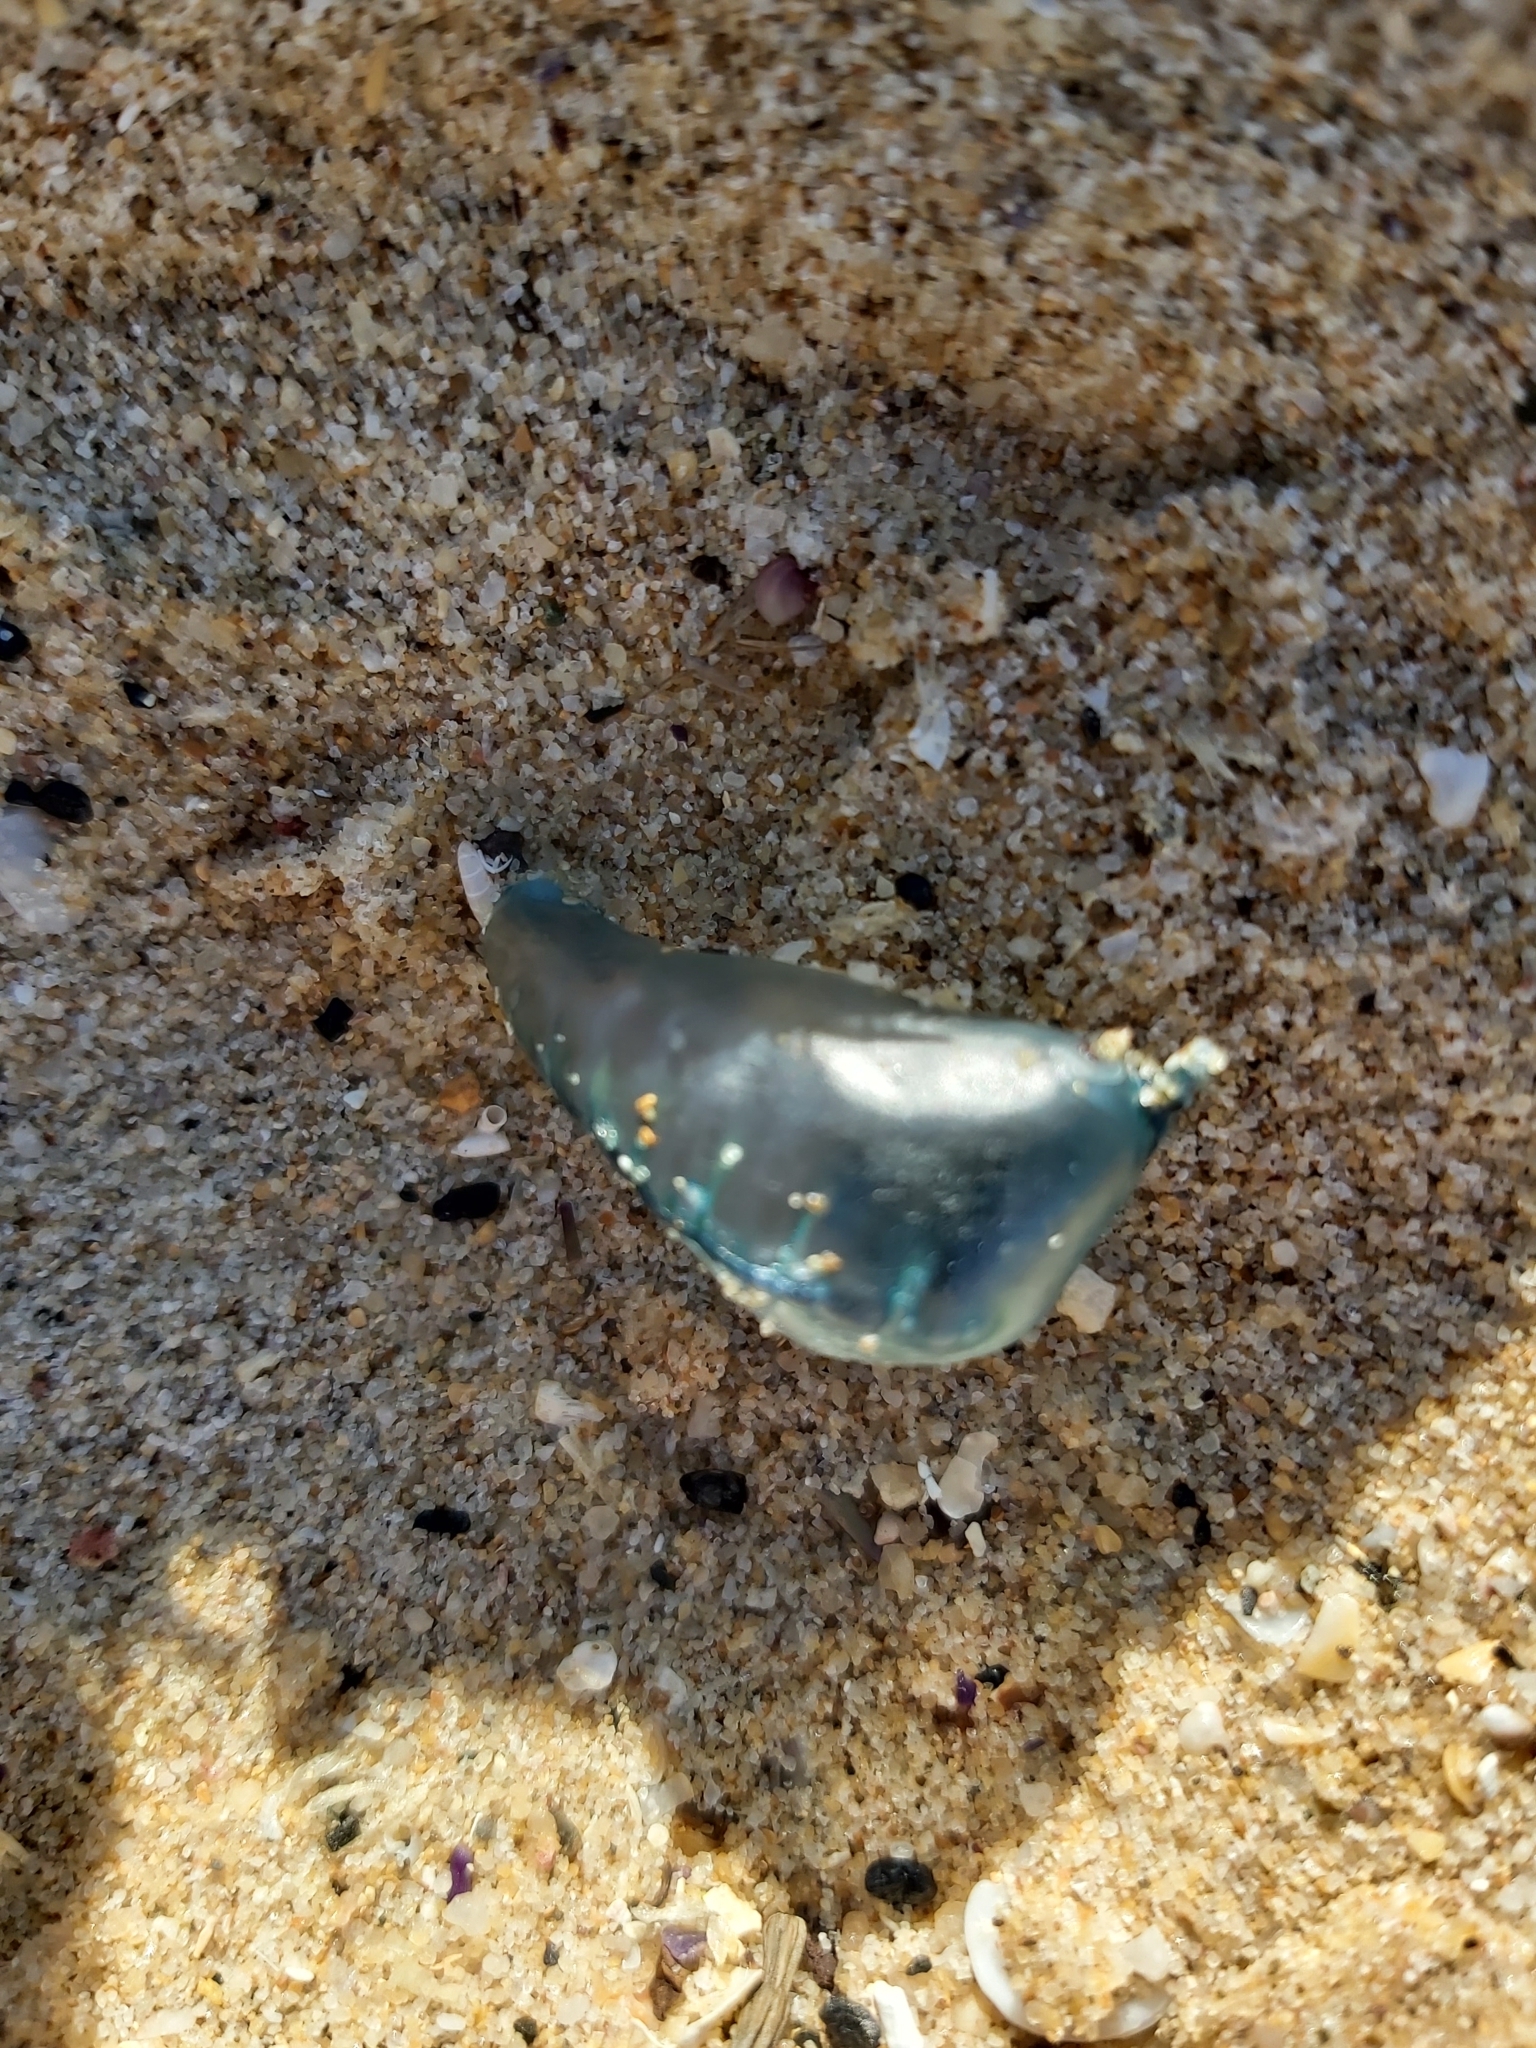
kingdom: Animalia
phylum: Cnidaria
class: Hydrozoa
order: Siphonophorae
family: Physaliidae
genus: Physalia
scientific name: Physalia physalis
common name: Portuguese man-of-war
